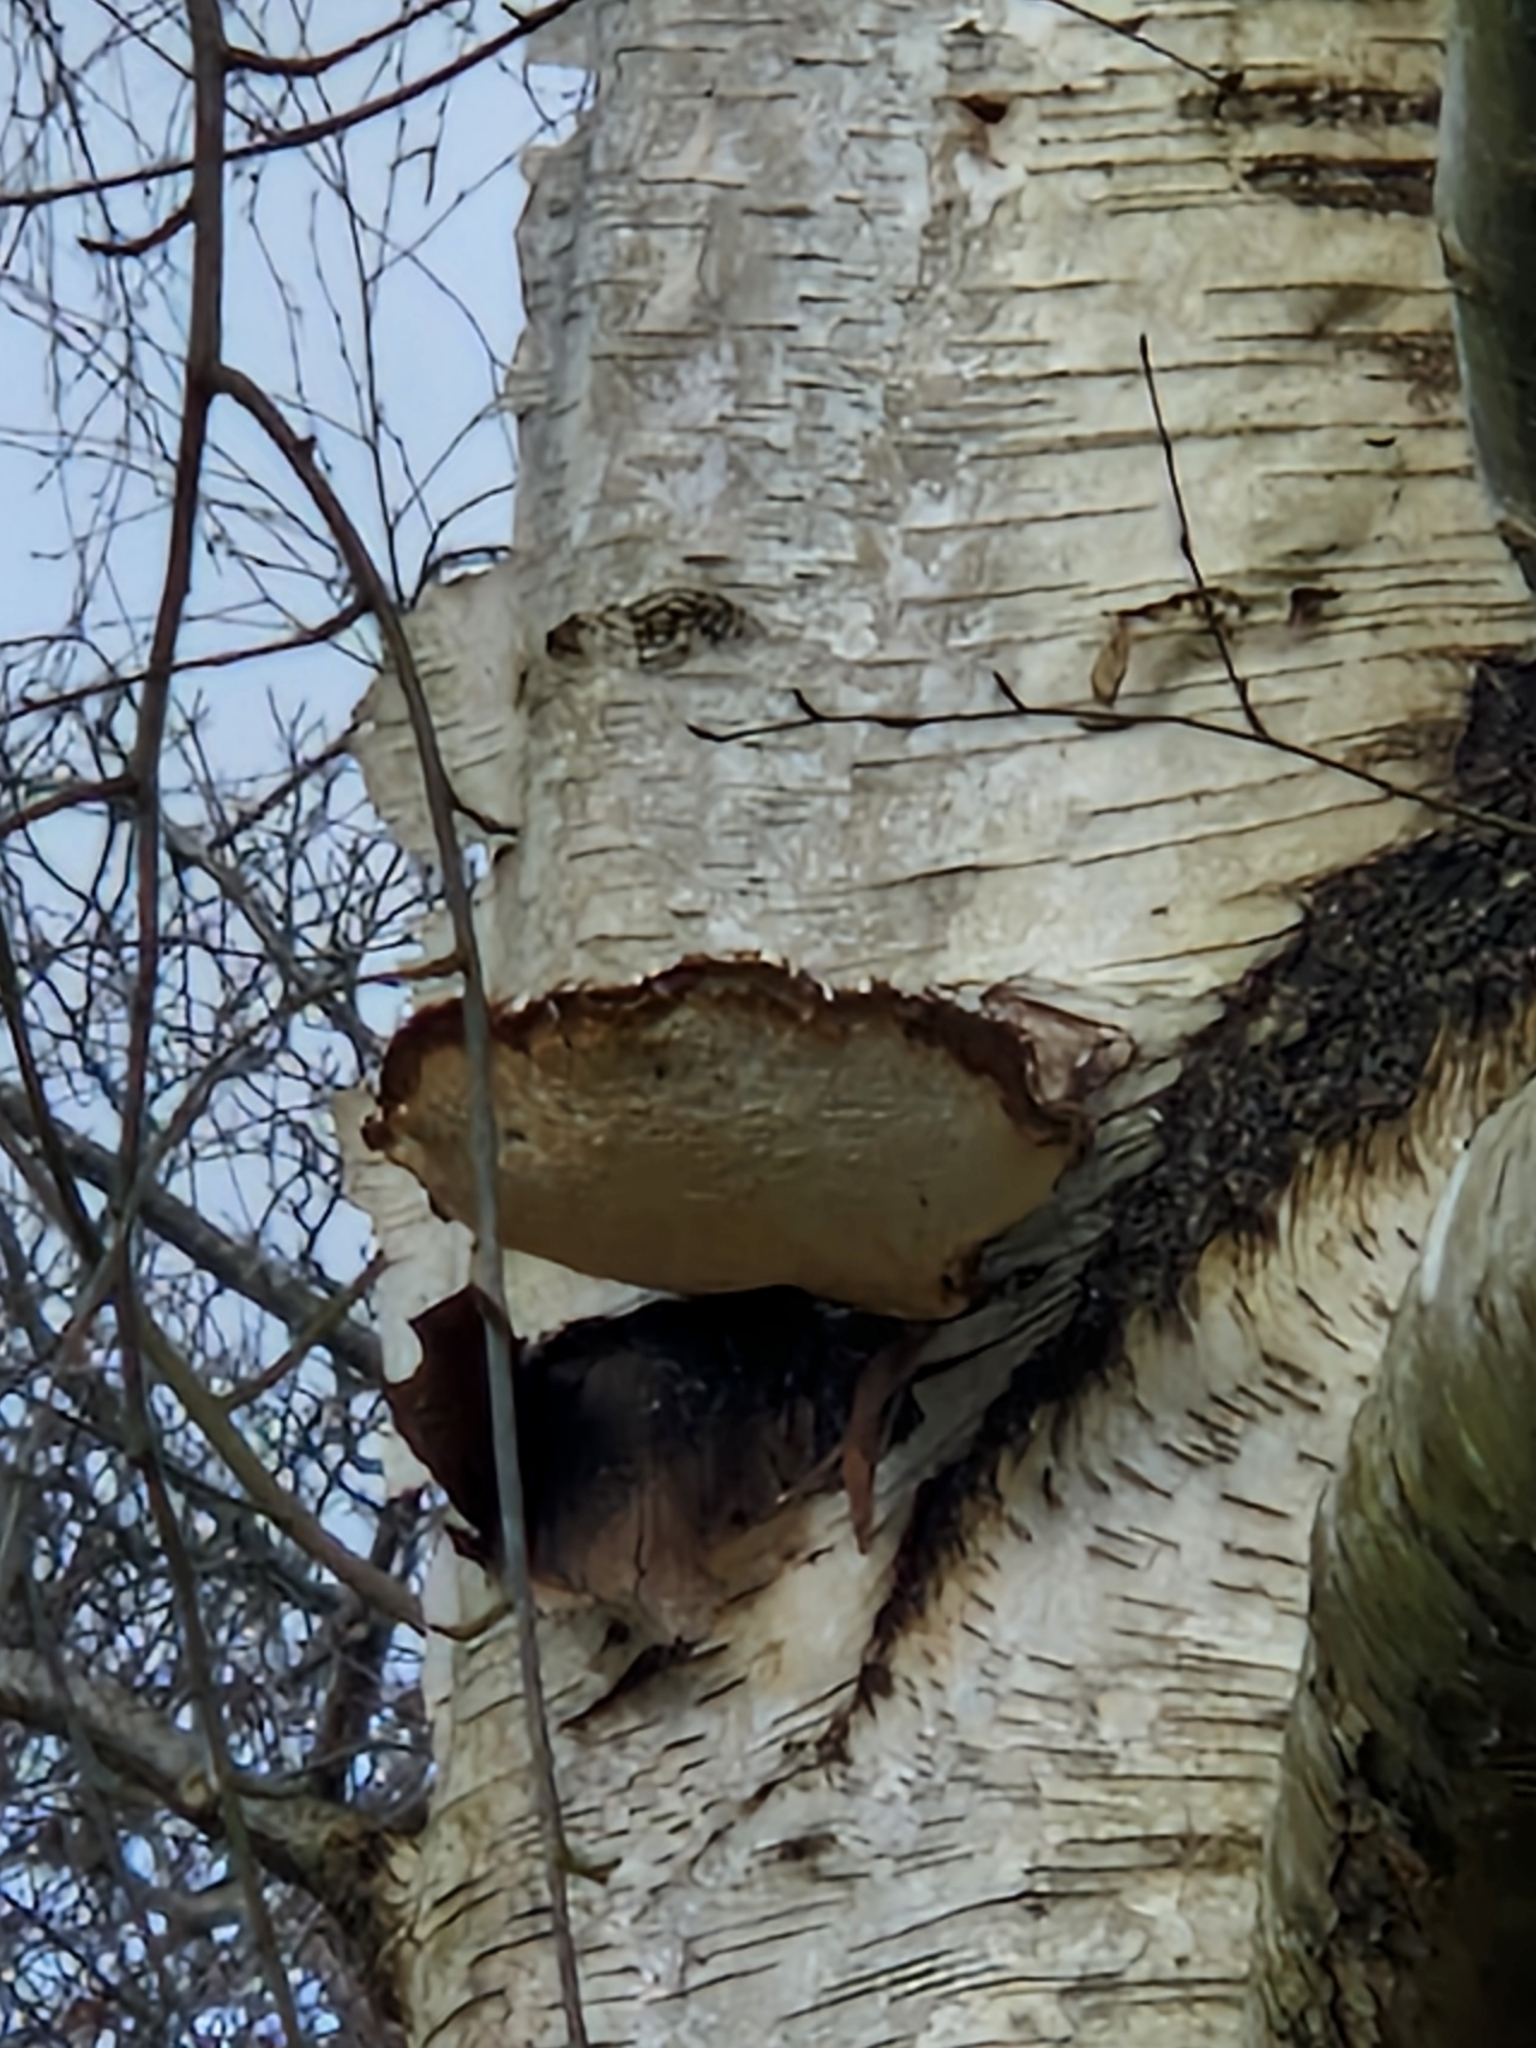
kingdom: Fungi
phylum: Basidiomycota
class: Agaricomycetes
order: Polyporales
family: Fomitopsidaceae
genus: Fomitopsis
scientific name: Fomitopsis betulina
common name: Birch polypore
